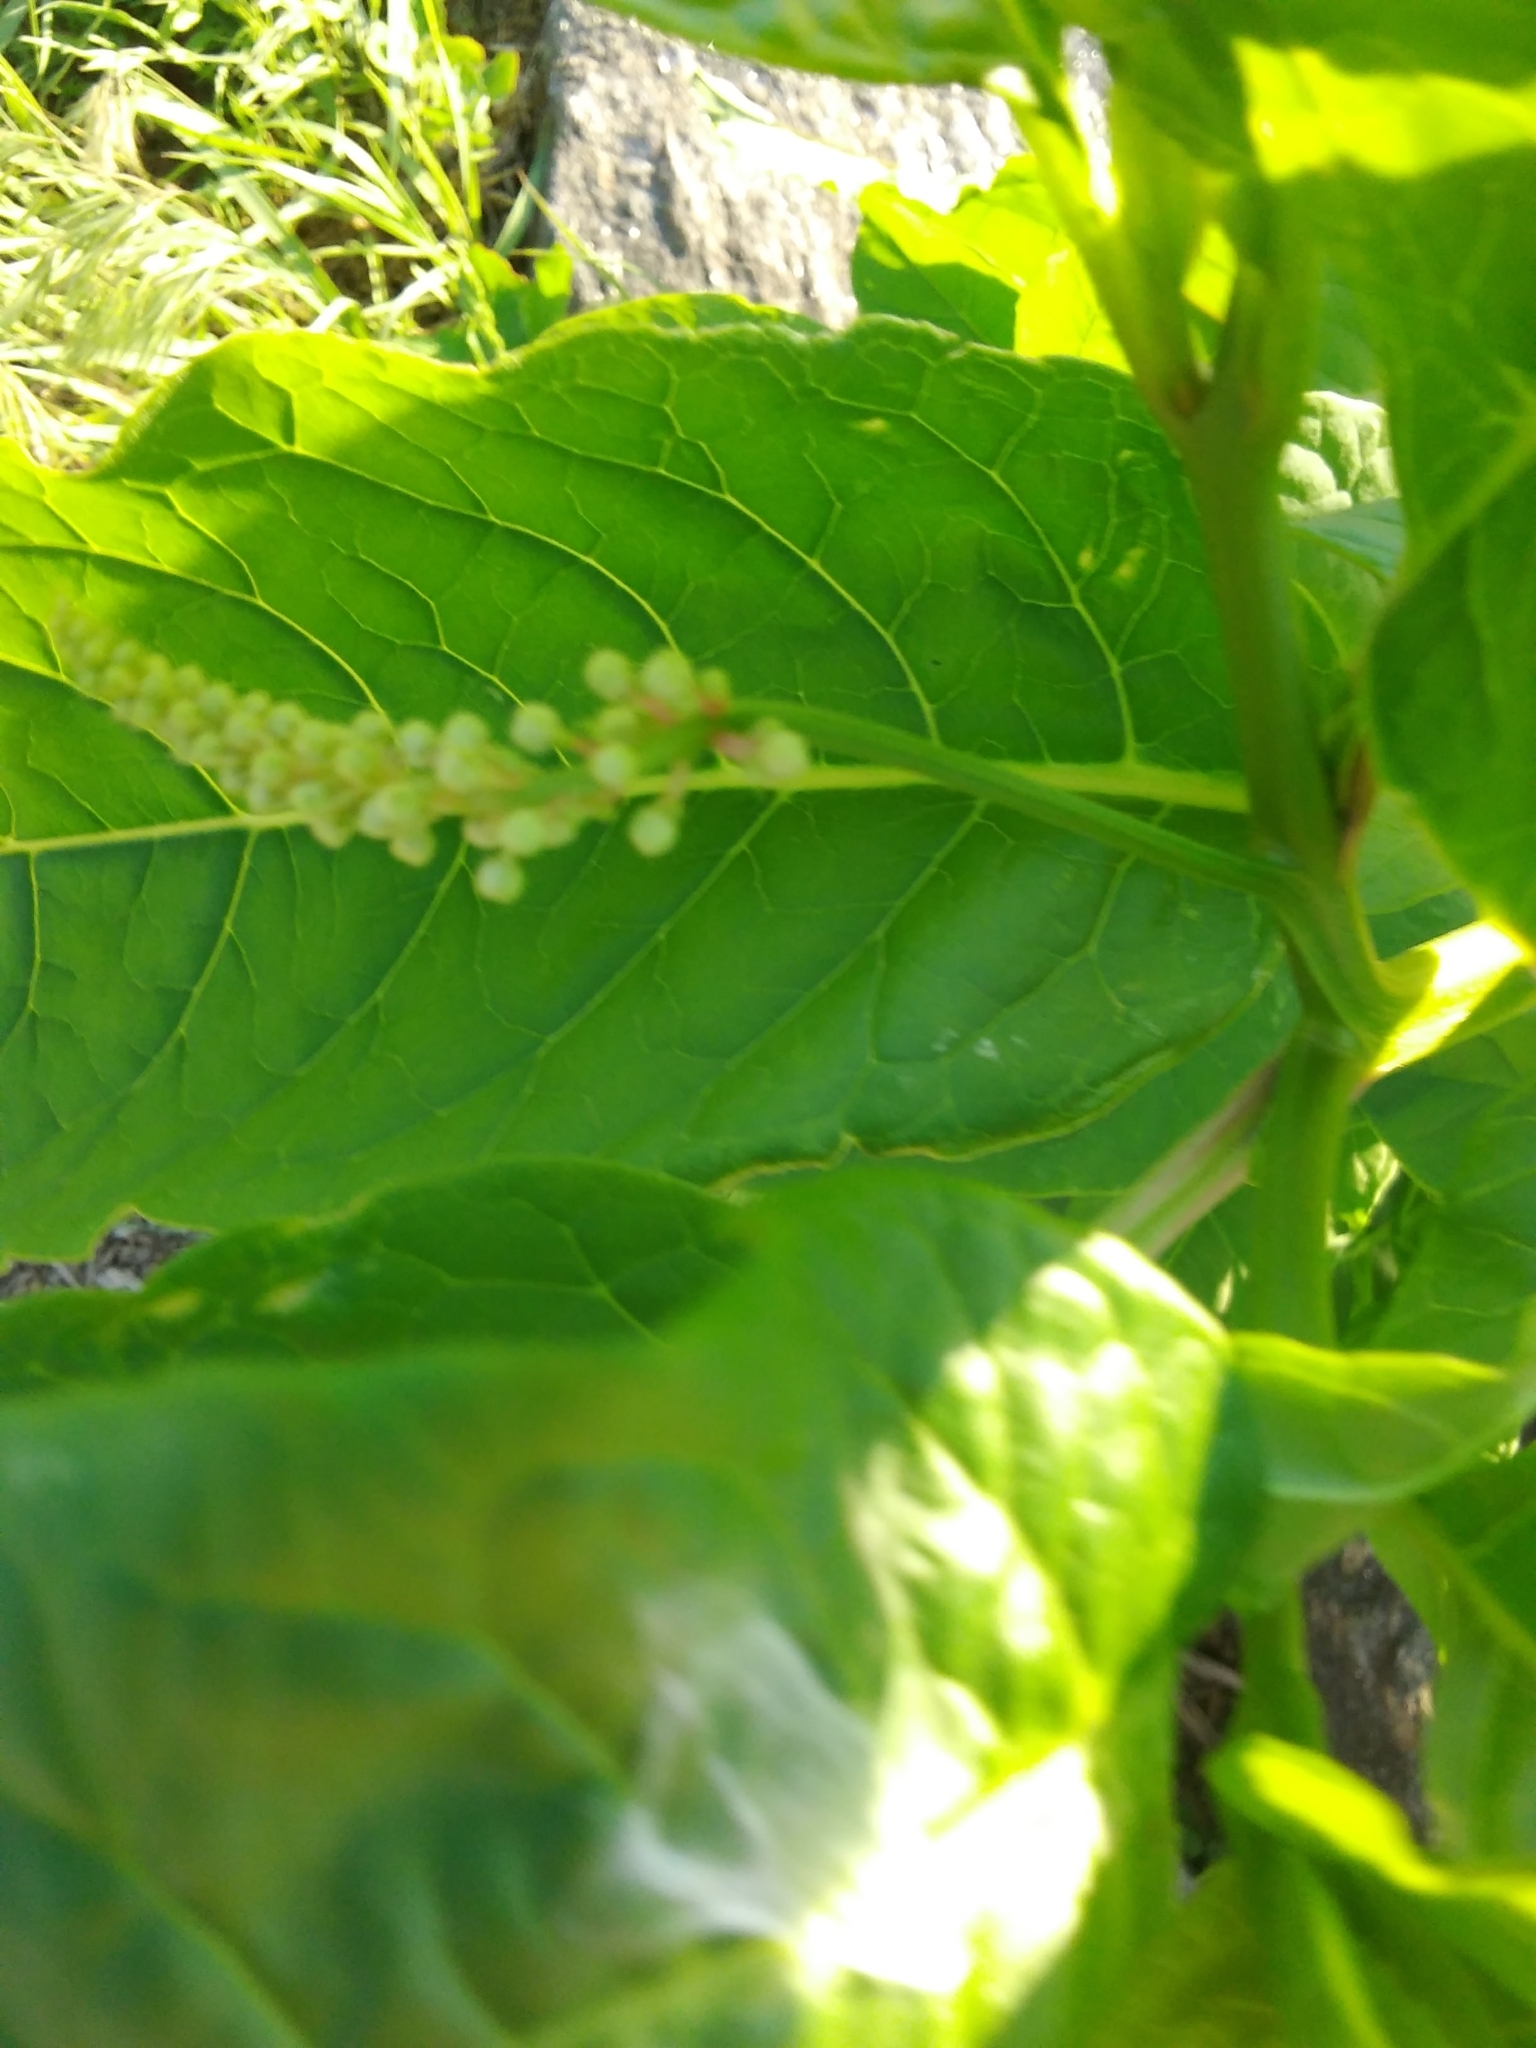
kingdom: Plantae
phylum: Tracheophyta
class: Magnoliopsida
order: Caryophyllales
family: Phytolaccaceae
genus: Phytolacca
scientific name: Phytolacca americana
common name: American pokeweed
